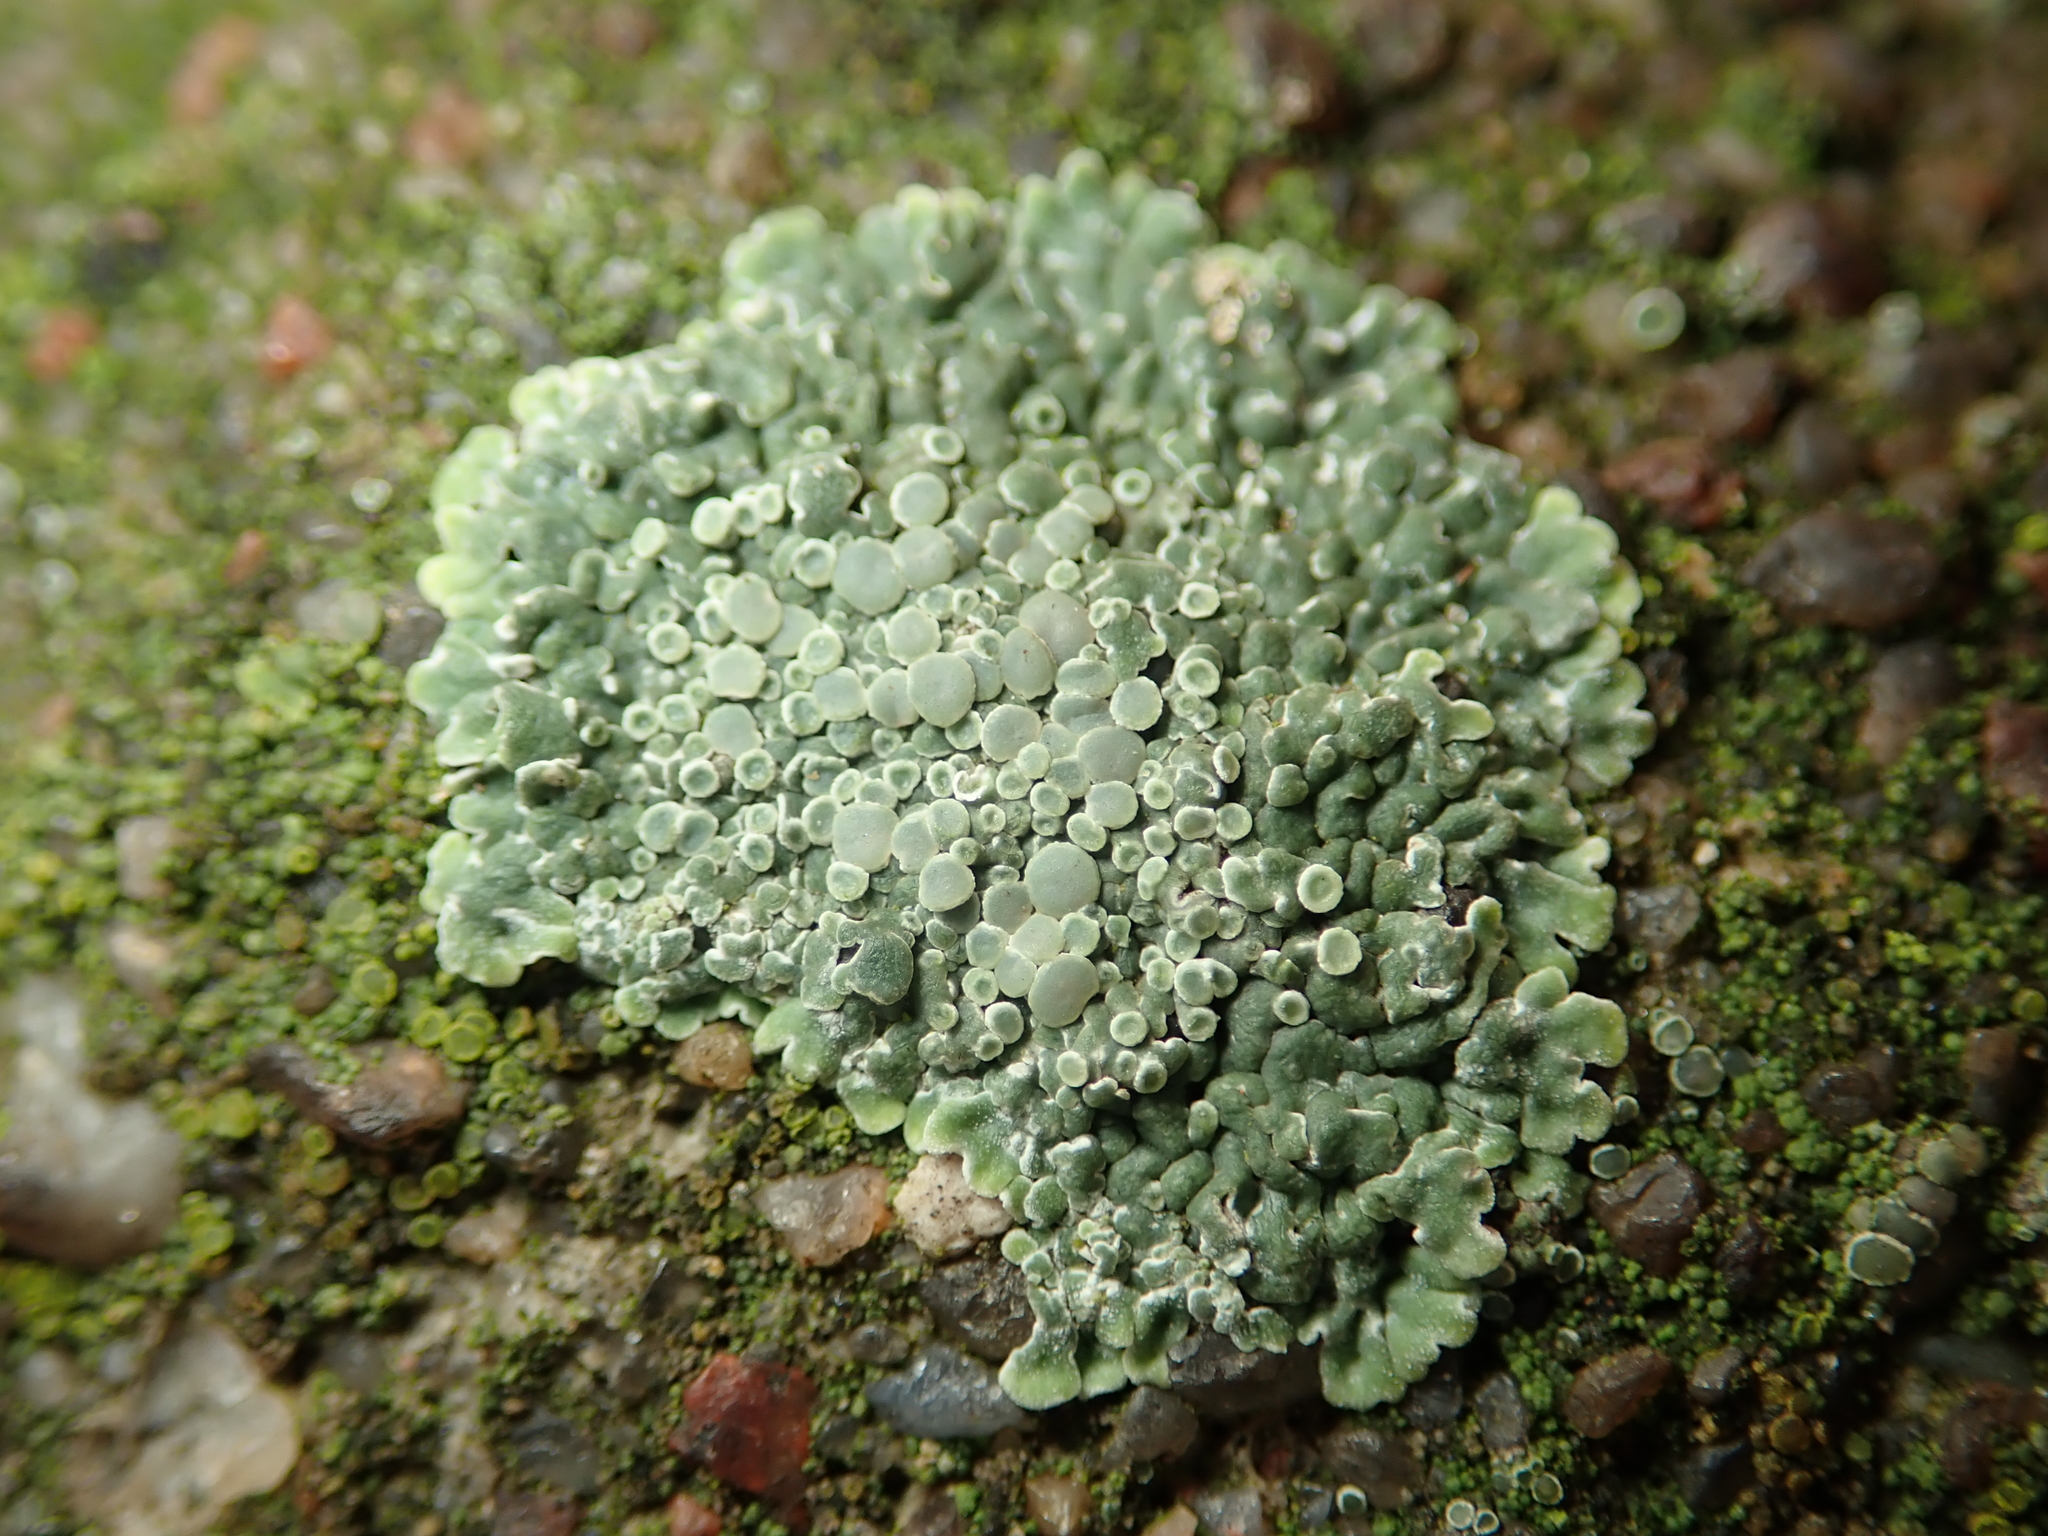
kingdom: Fungi
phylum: Ascomycota
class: Lecanoromycetes
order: Lecanorales
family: Lecanoraceae
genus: Protoparmeliopsis
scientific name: Protoparmeliopsis muralis
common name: Stonewall rim lichen
